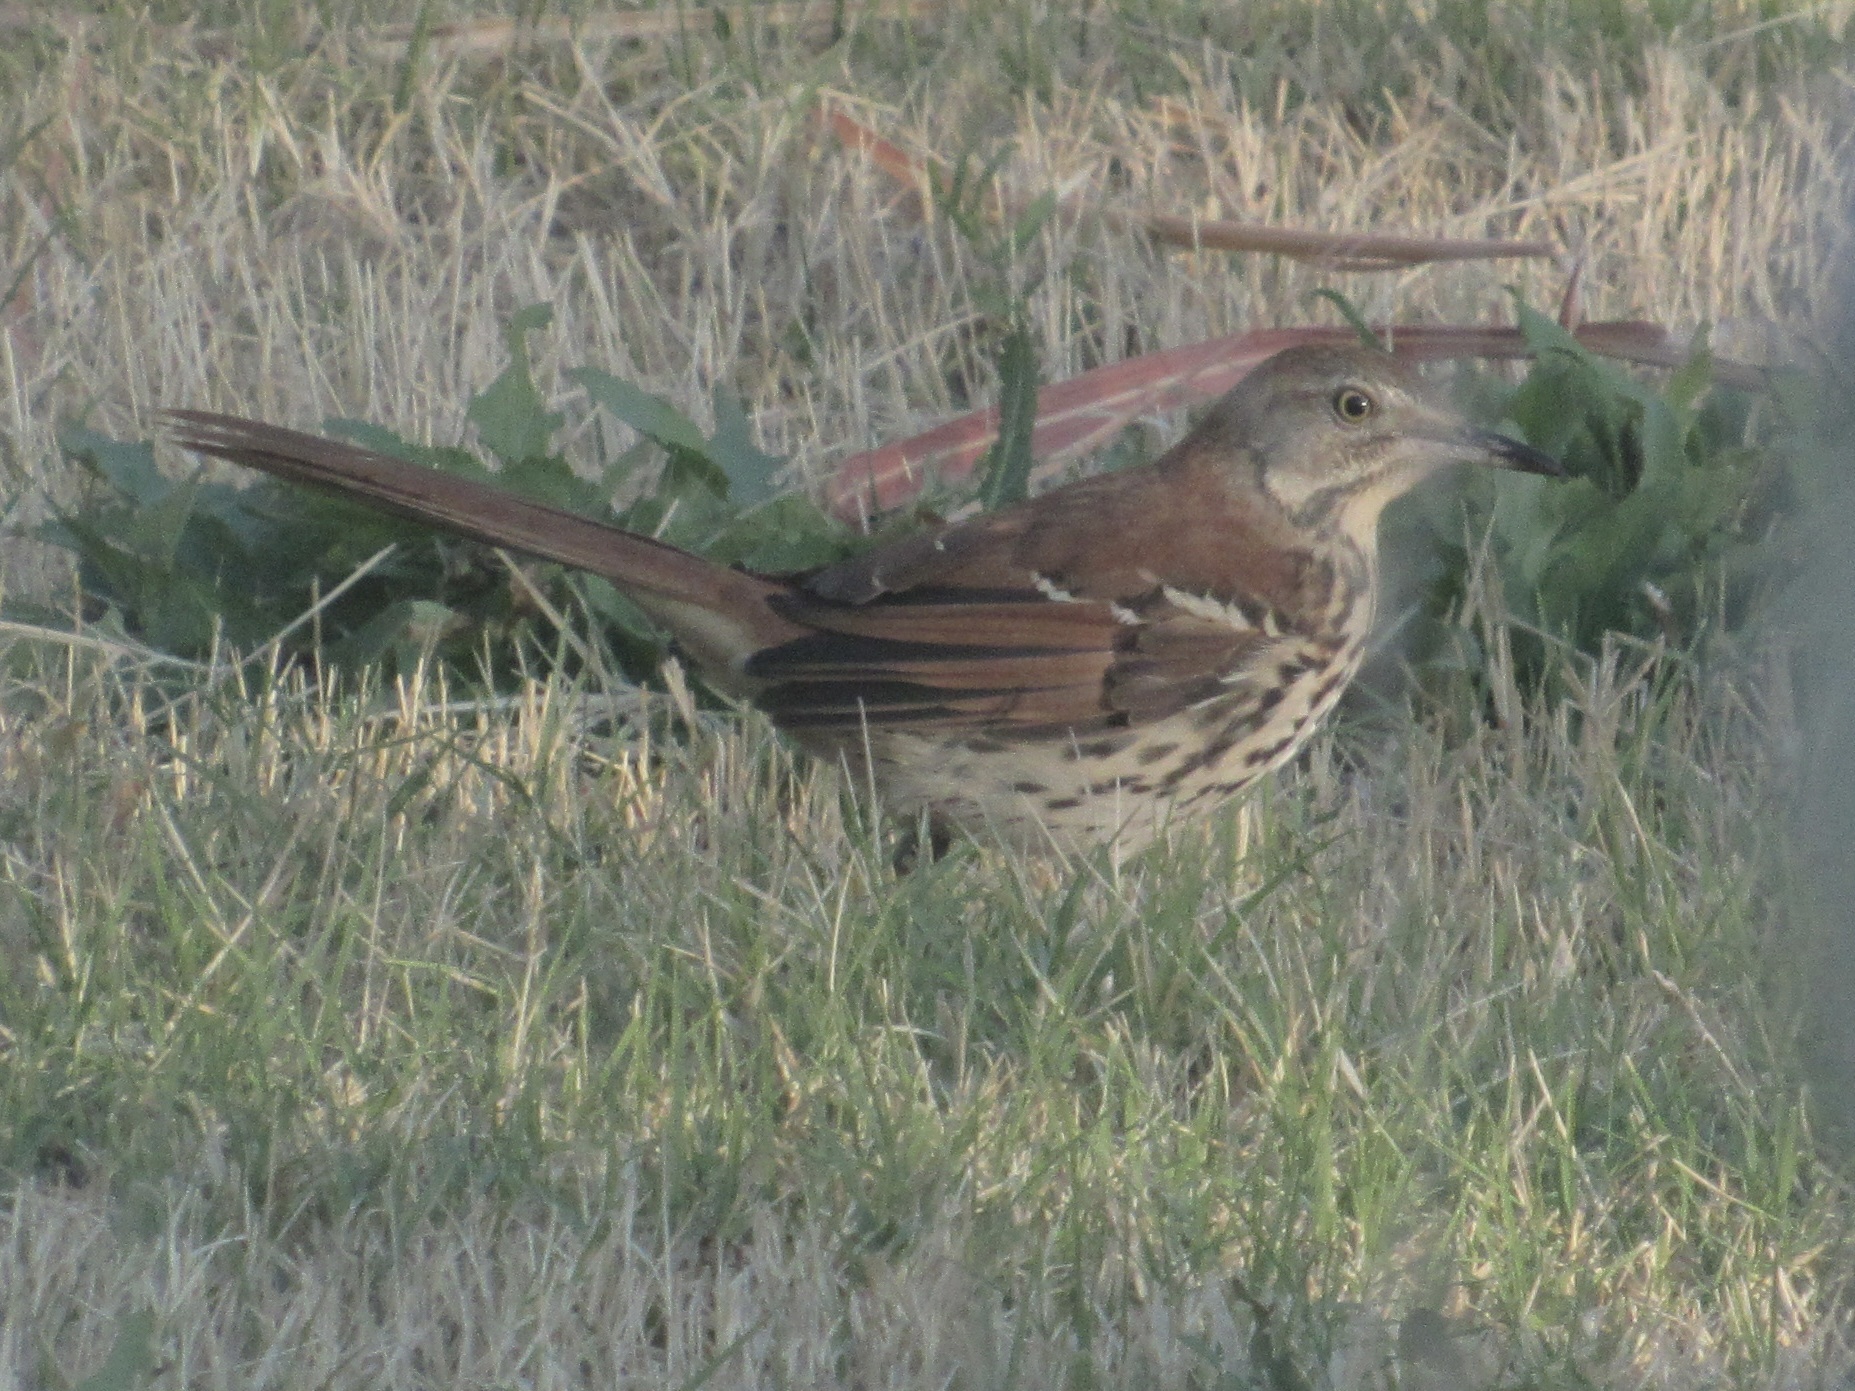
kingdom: Animalia
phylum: Chordata
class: Aves
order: Passeriformes
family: Mimidae
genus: Toxostoma
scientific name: Toxostoma rufum
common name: Brown thrasher
